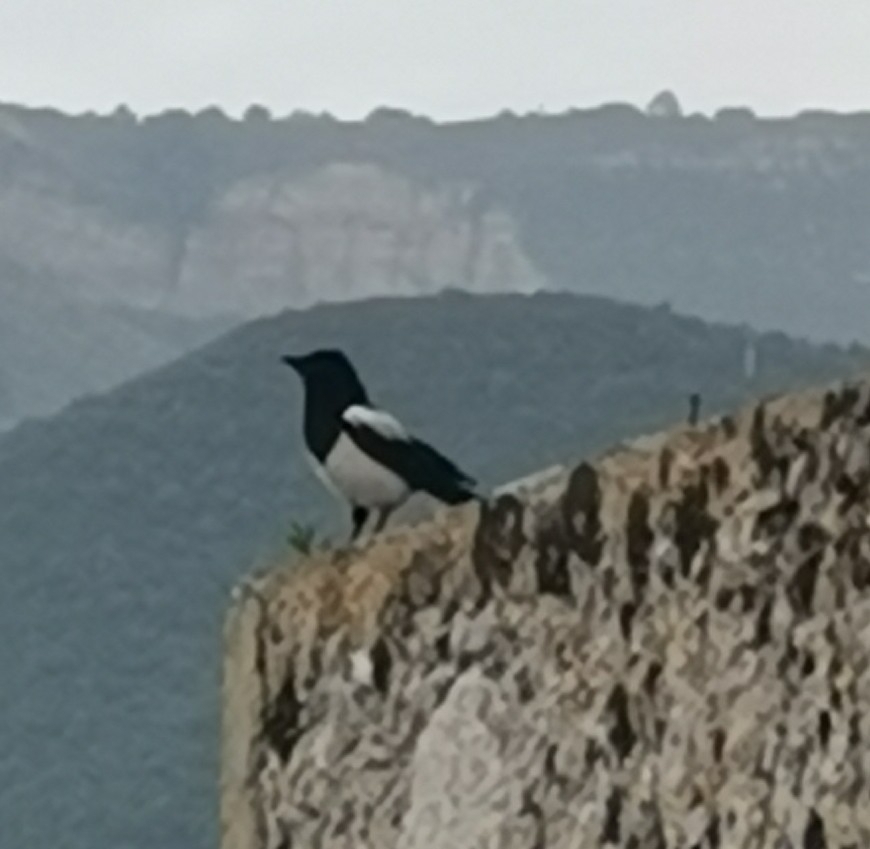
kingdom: Animalia
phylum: Chordata
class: Aves
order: Passeriformes
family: Corvidae
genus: Pica
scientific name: Pica pica
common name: Eurasian magpie
